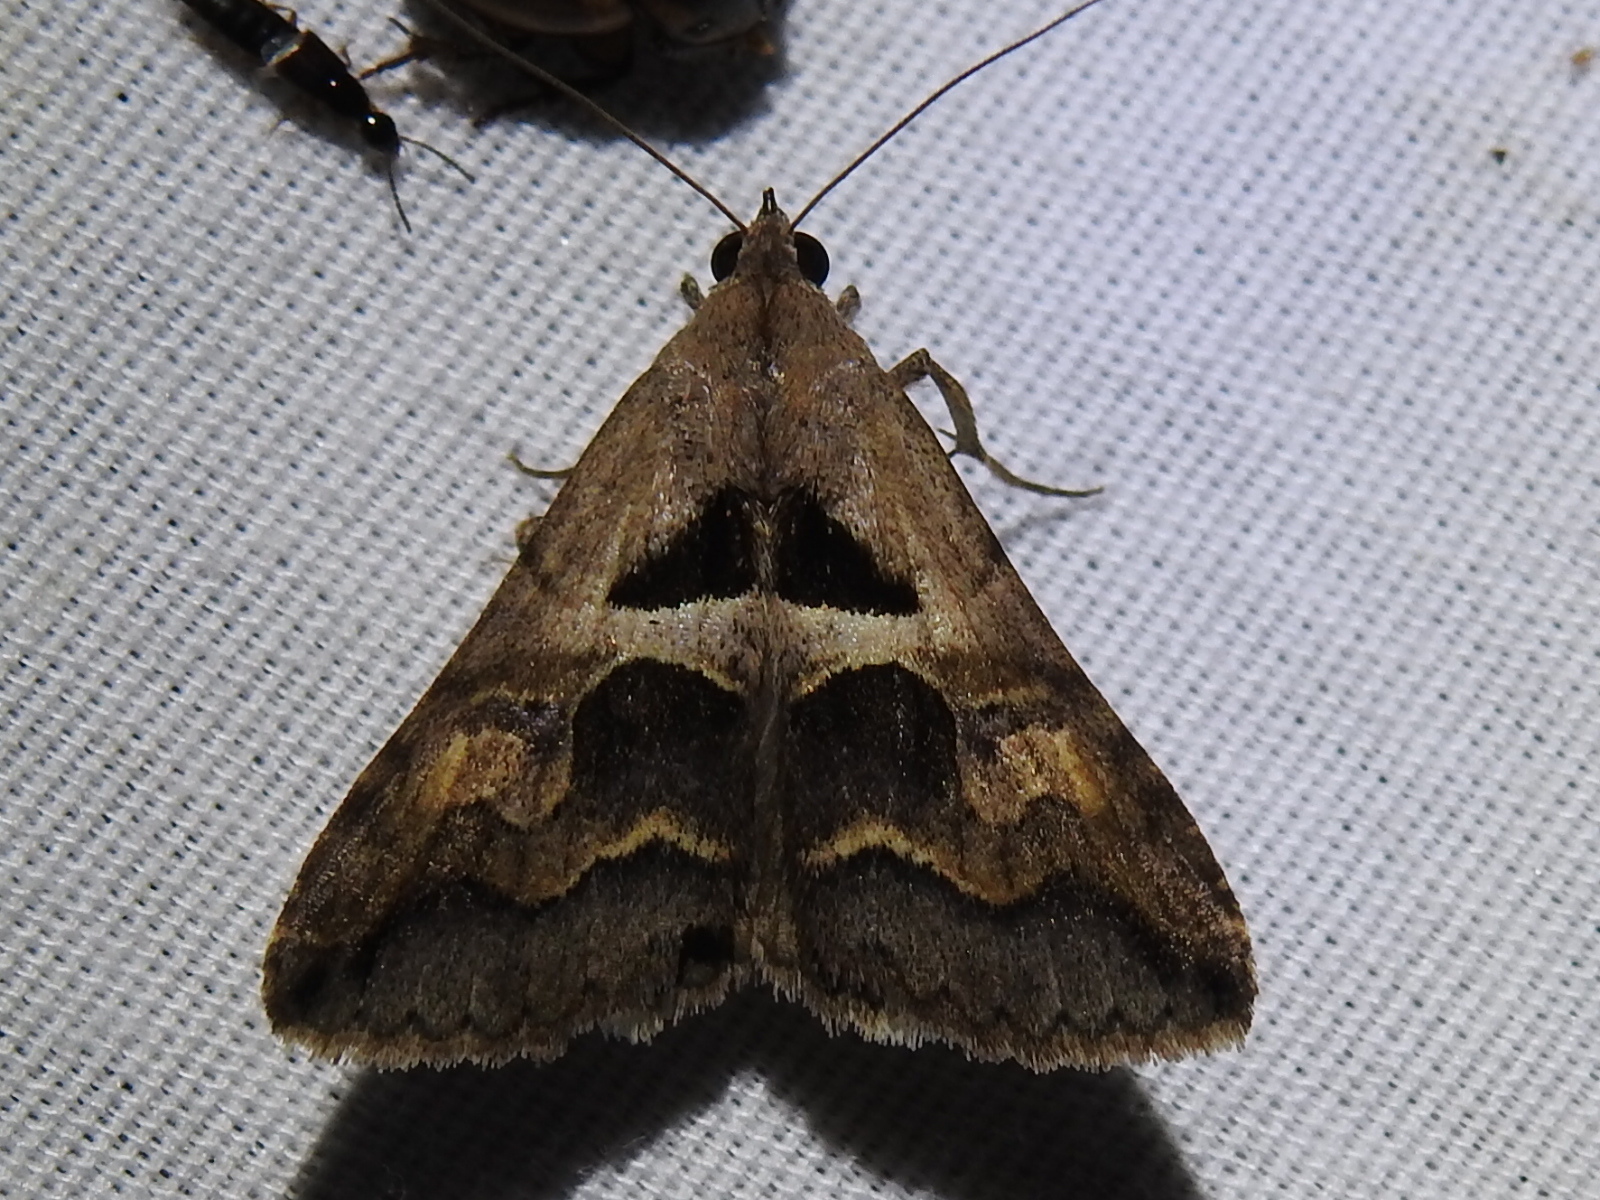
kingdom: Animalia
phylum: Arthropoda
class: Insecta
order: Lepidoptera
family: Erebidae
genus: Melipotis
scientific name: Melipotis cellaris
